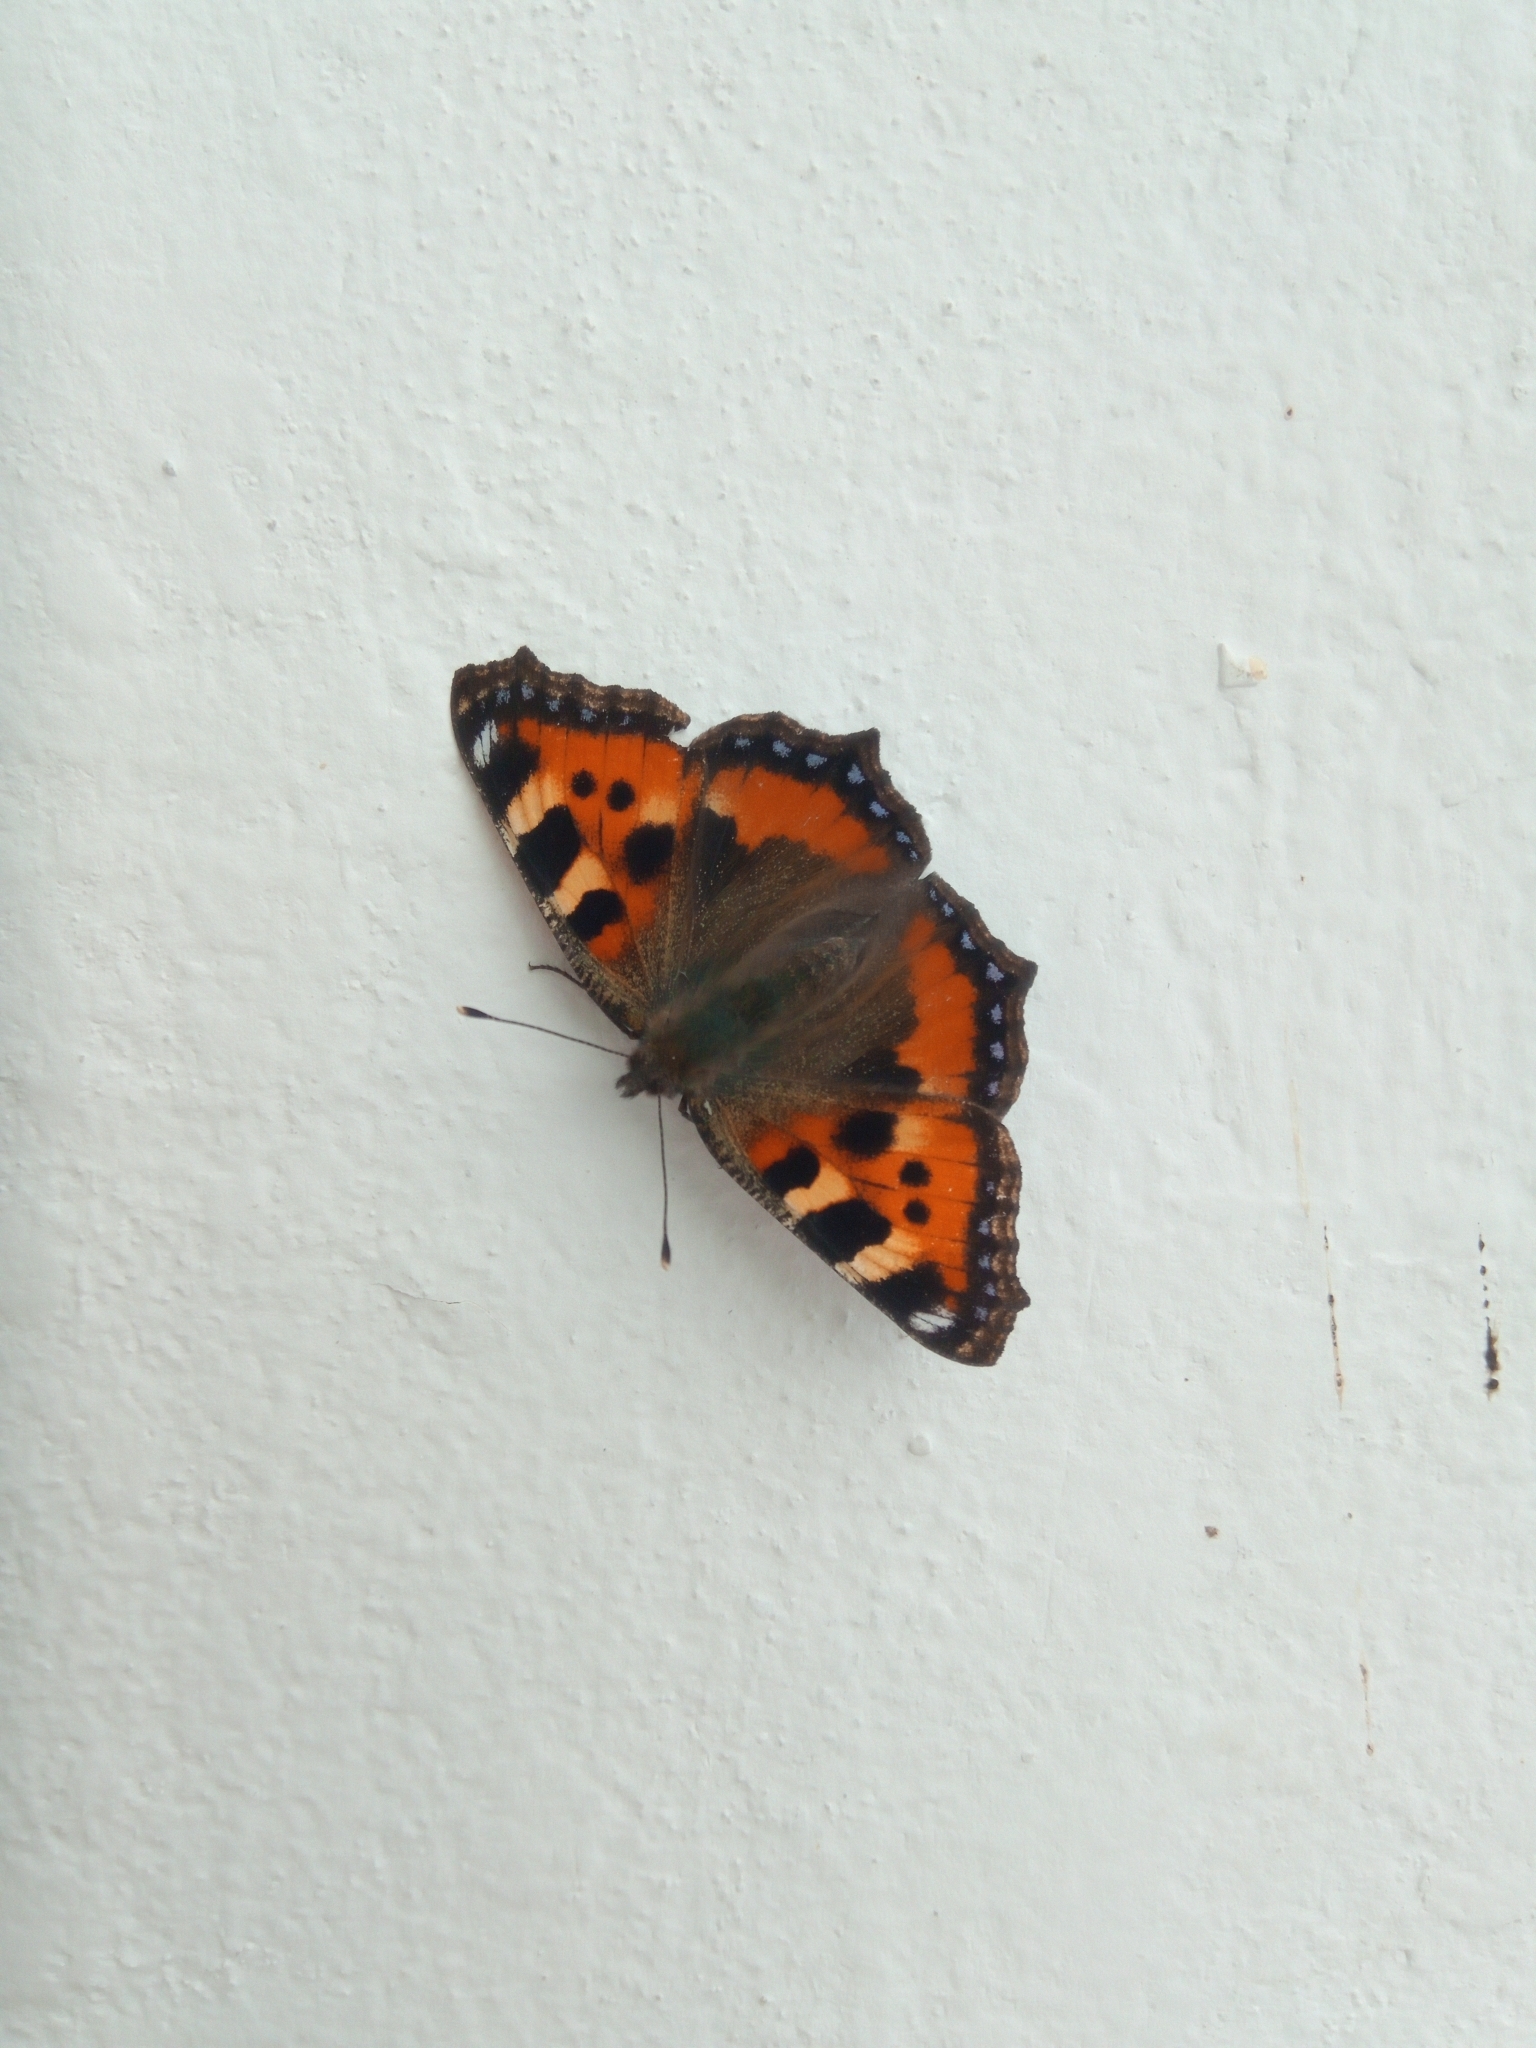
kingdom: Animalia
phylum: Arthropoda
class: Insecta
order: Lepidoptera
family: Nymphalidae
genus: Aglais
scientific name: Aglais urticae
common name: Small tortoiseshell
